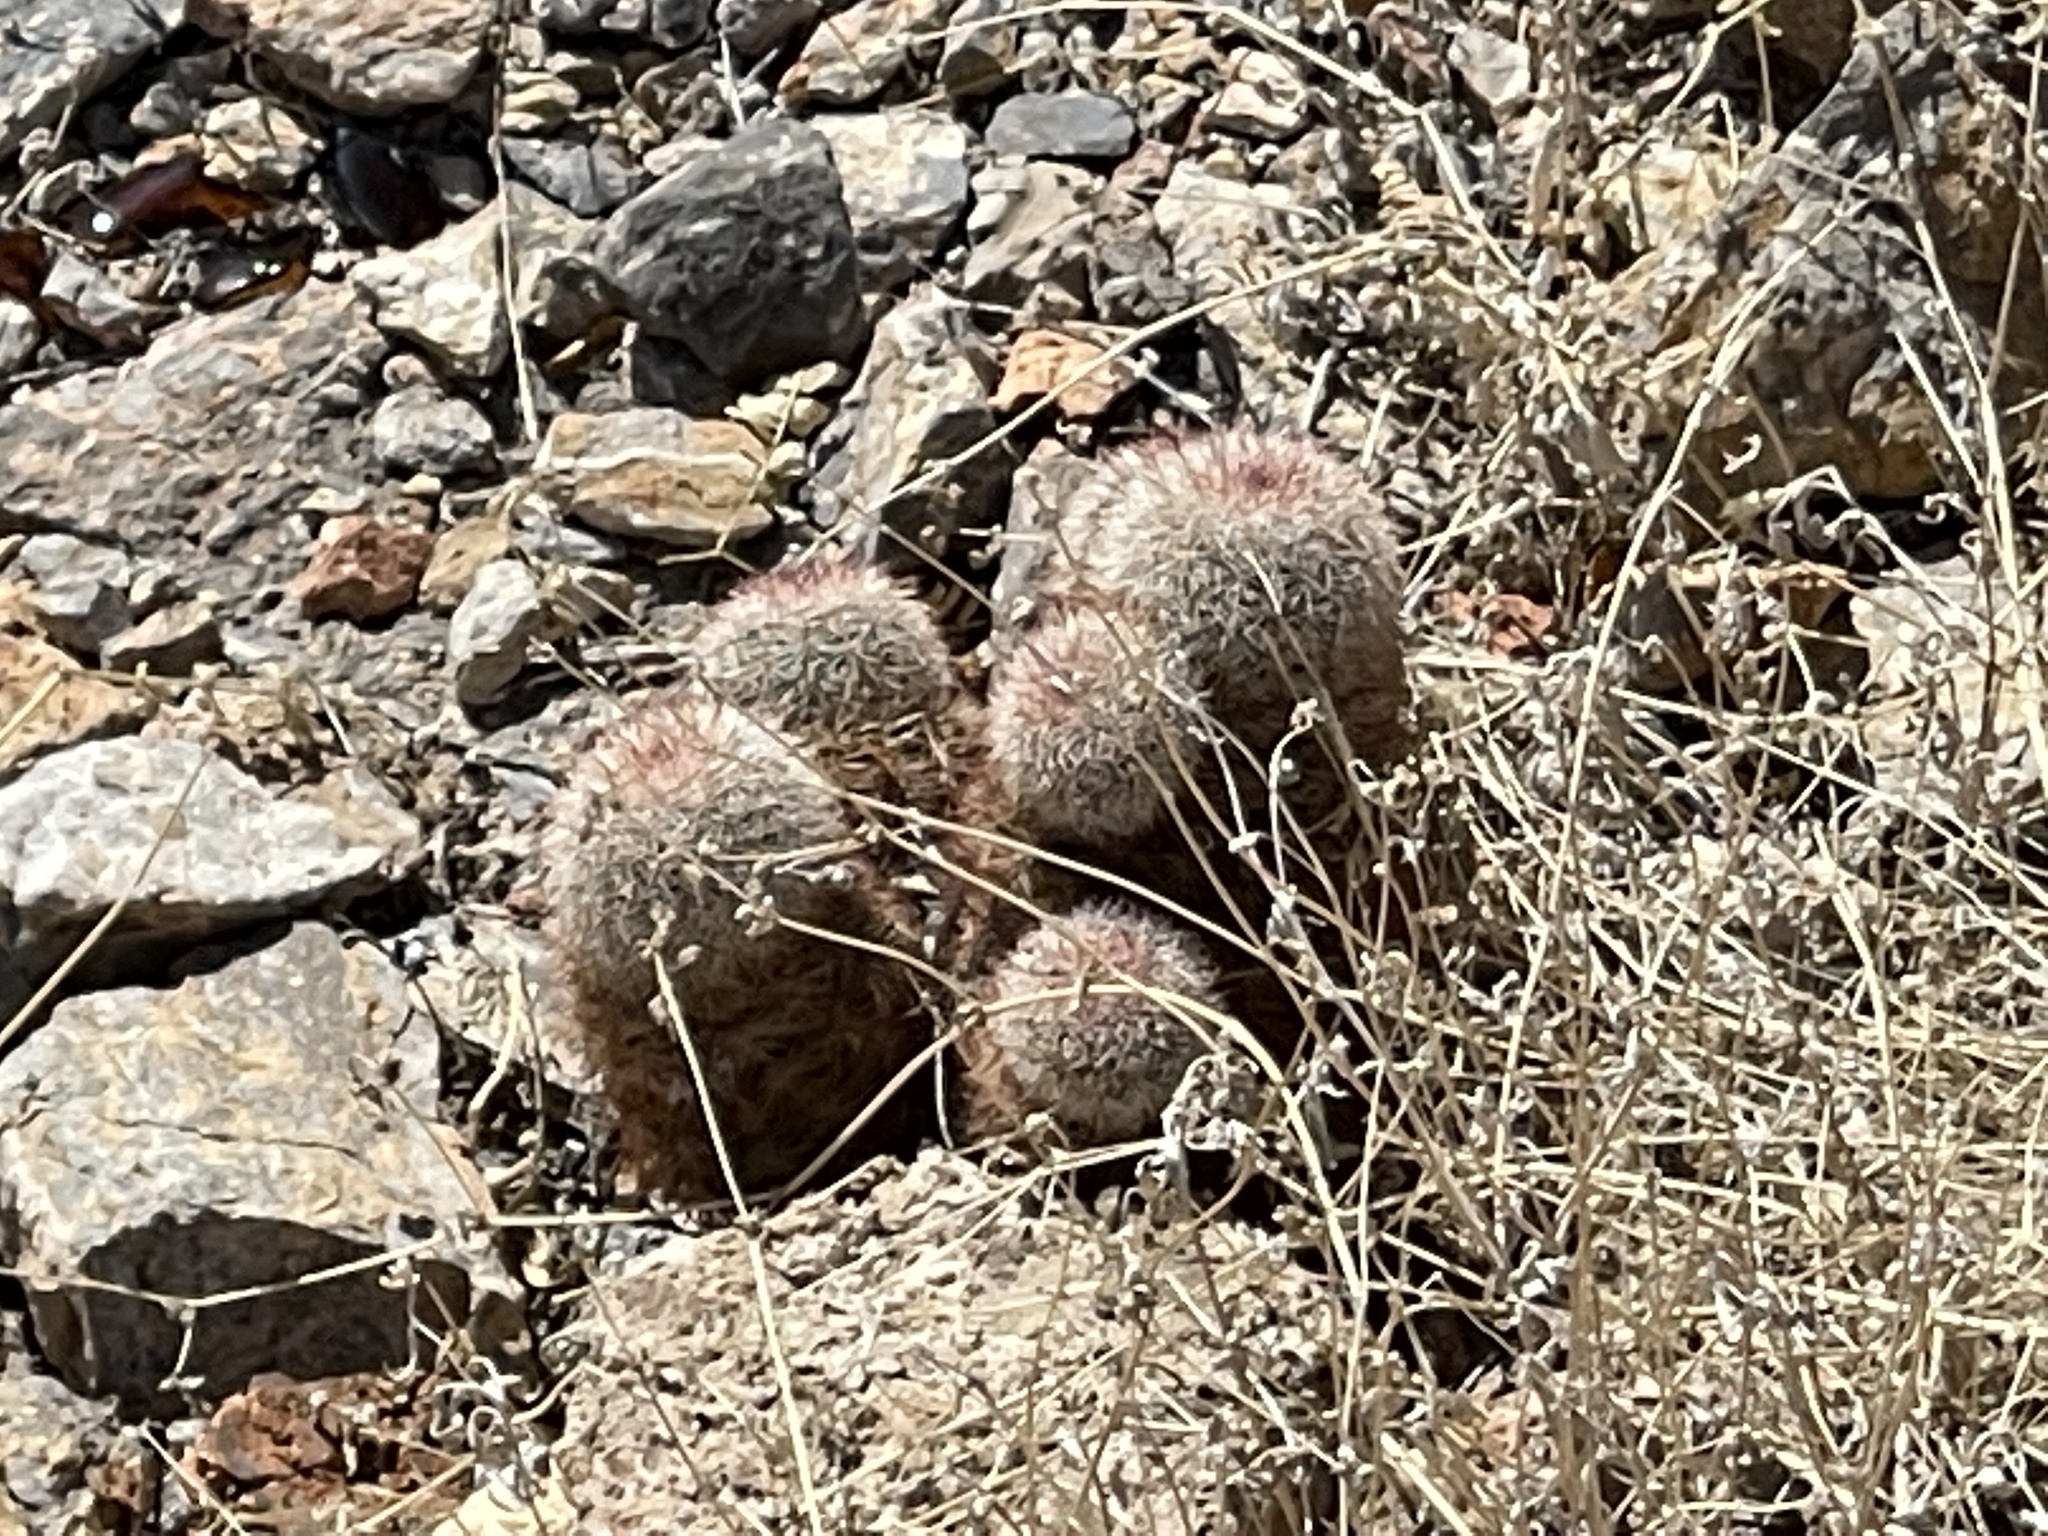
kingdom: Plantae
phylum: Tracheophyta
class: Magnoliopsida
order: Caryophyllales
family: Cactaceae
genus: Echinocereus
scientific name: Echinocereus dasyacanthus
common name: Spiny hedgehog cactus
